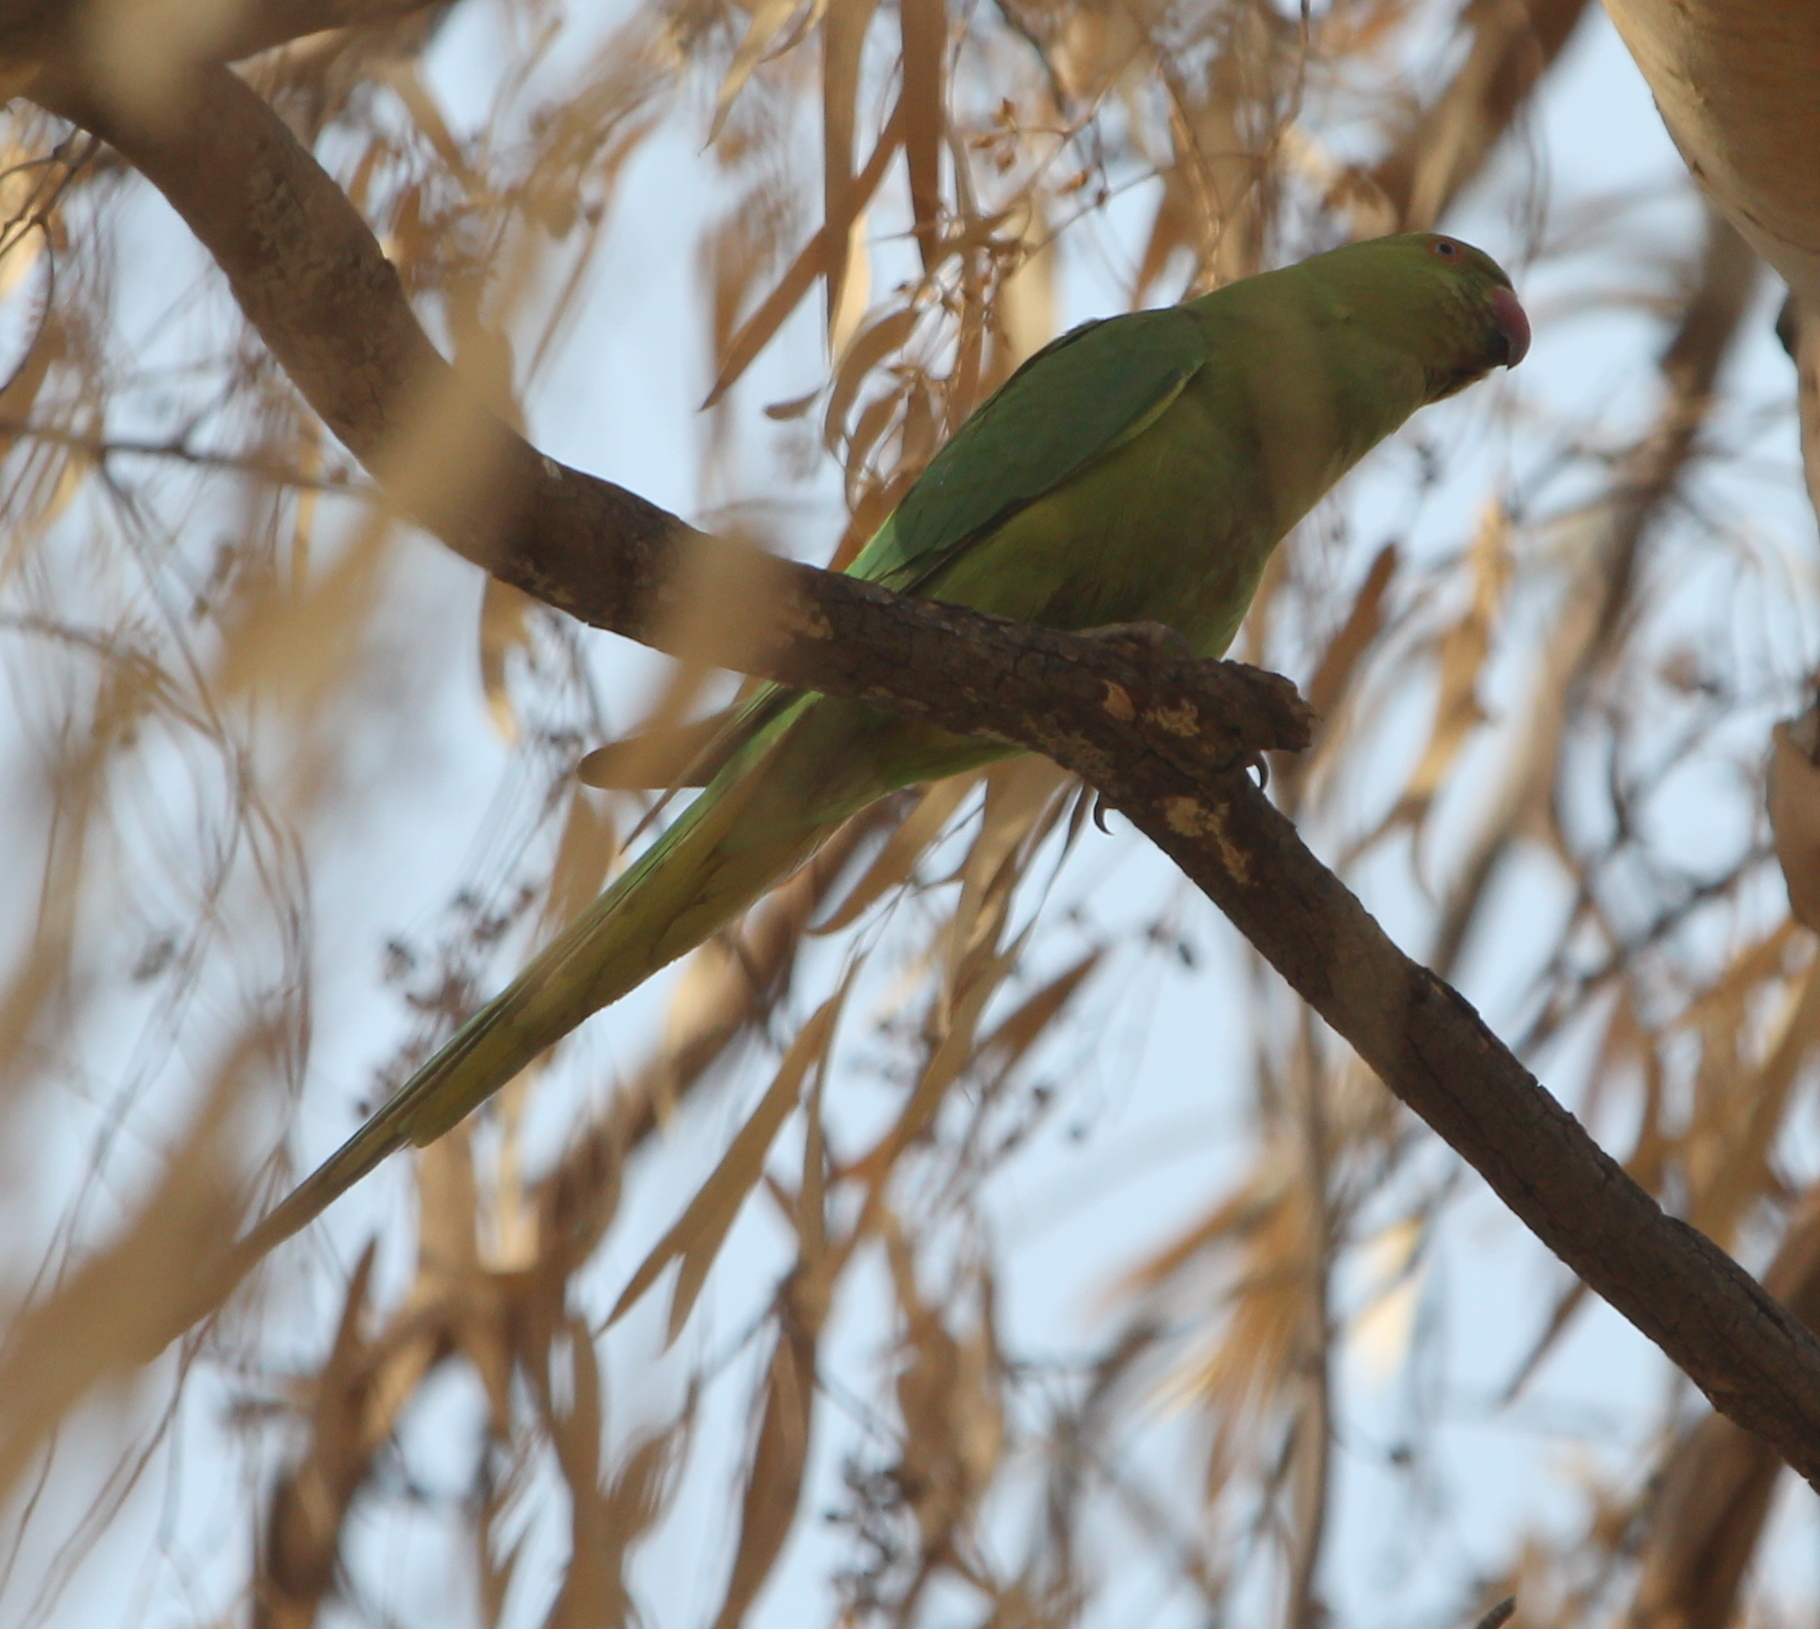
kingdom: Animalia
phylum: Chordata
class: Aves
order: Psittaciformes
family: Psittacidae
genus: Psittacula
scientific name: Psittacula krameri
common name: Rose-ringed parakeet
